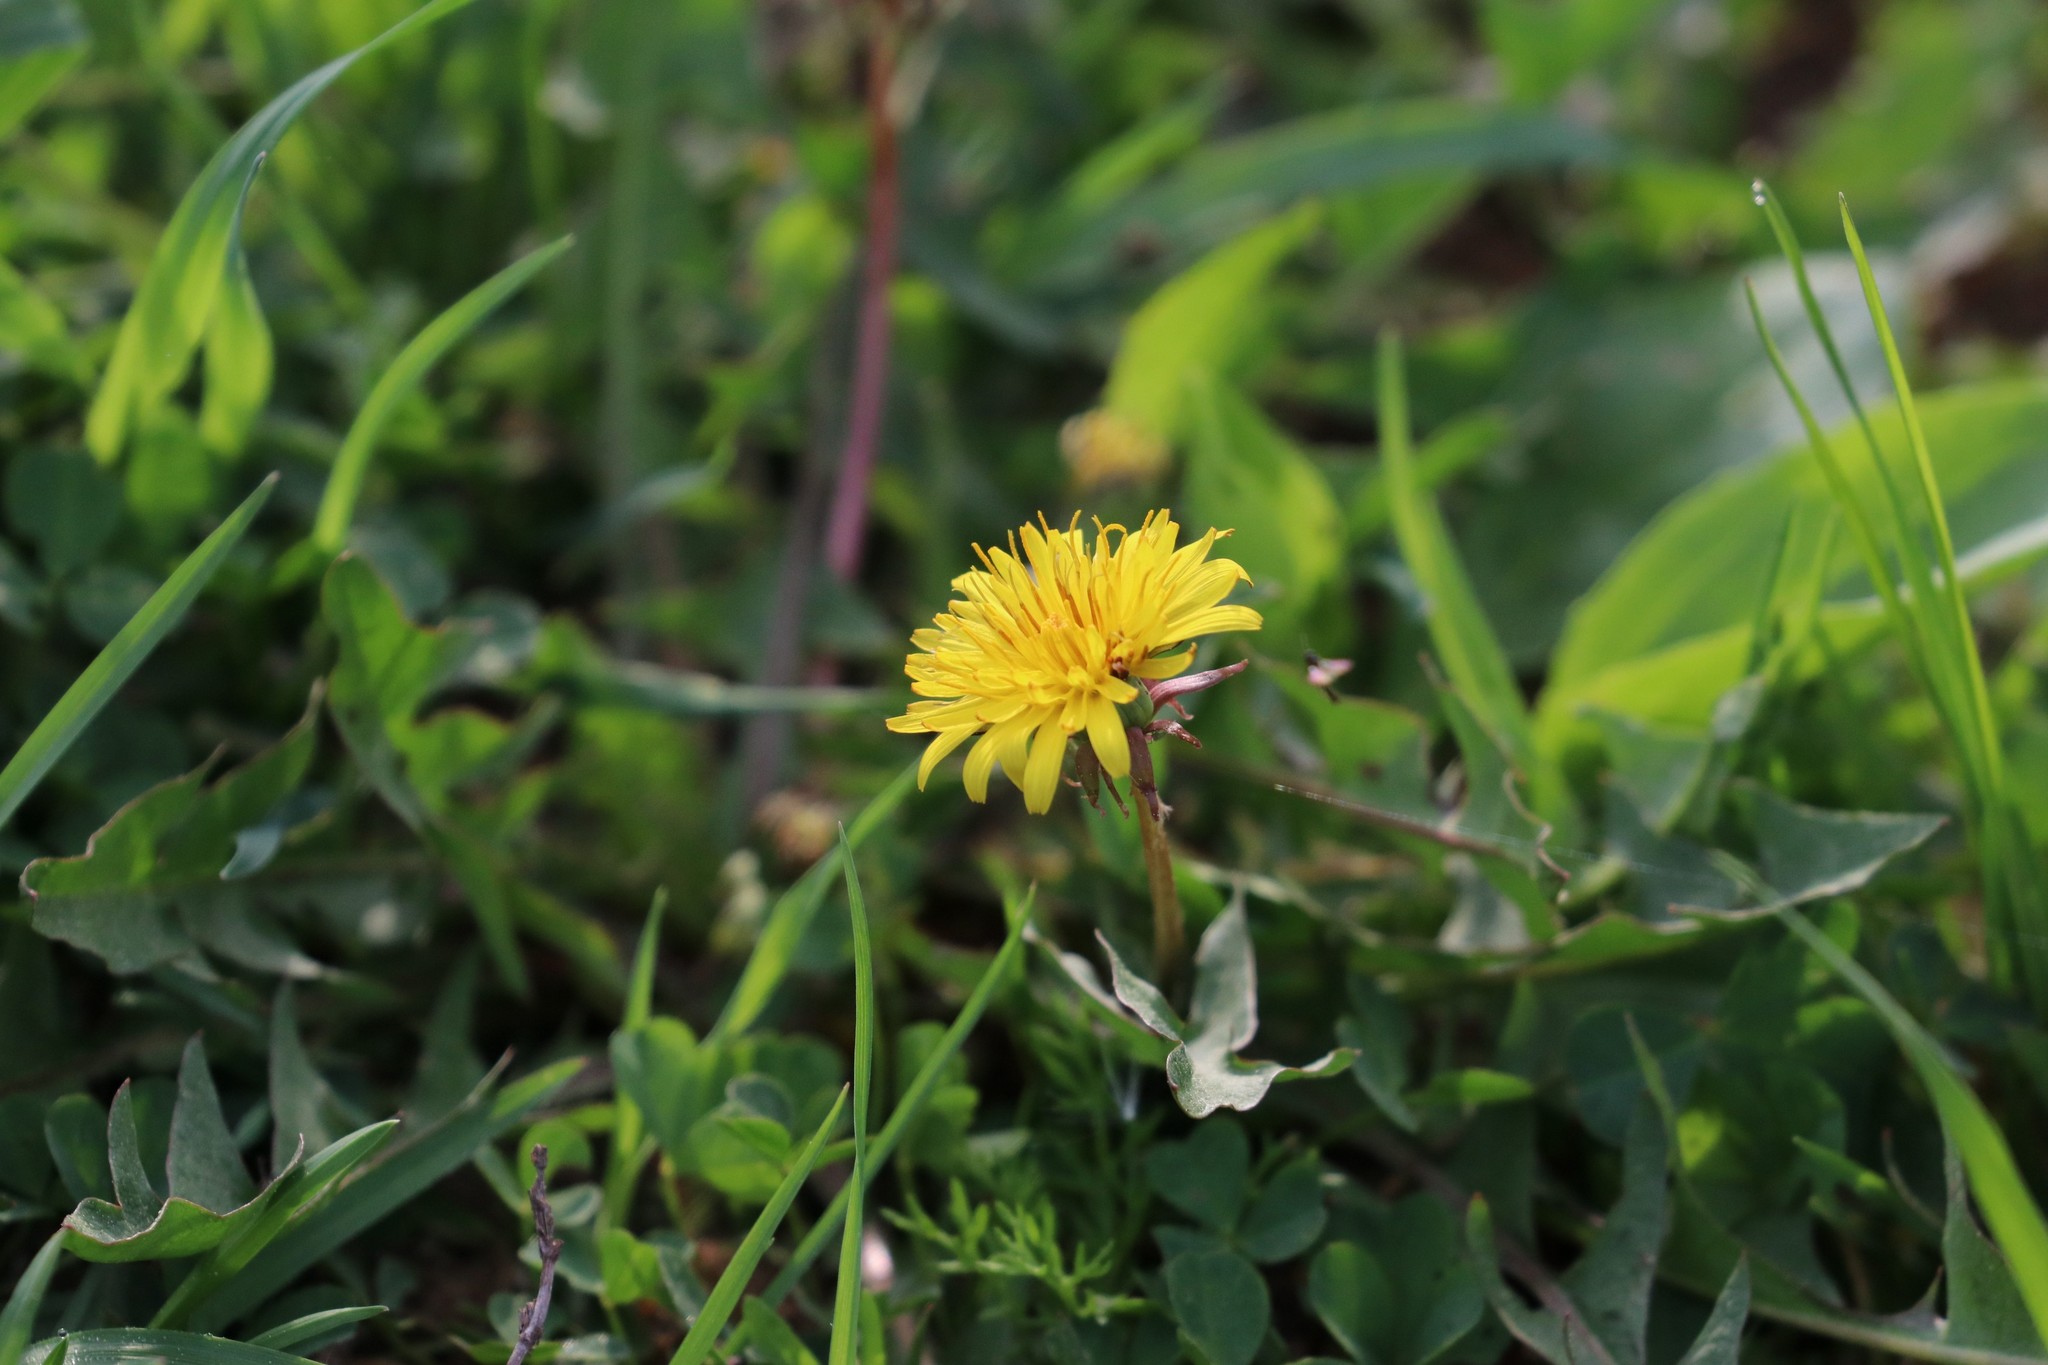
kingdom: Plantae
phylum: Tracheophyta
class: Magnoliopsida
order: Asterales
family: Asteraceae
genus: Taraxacum
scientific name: Taraxacum officinale
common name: Common dandelion
